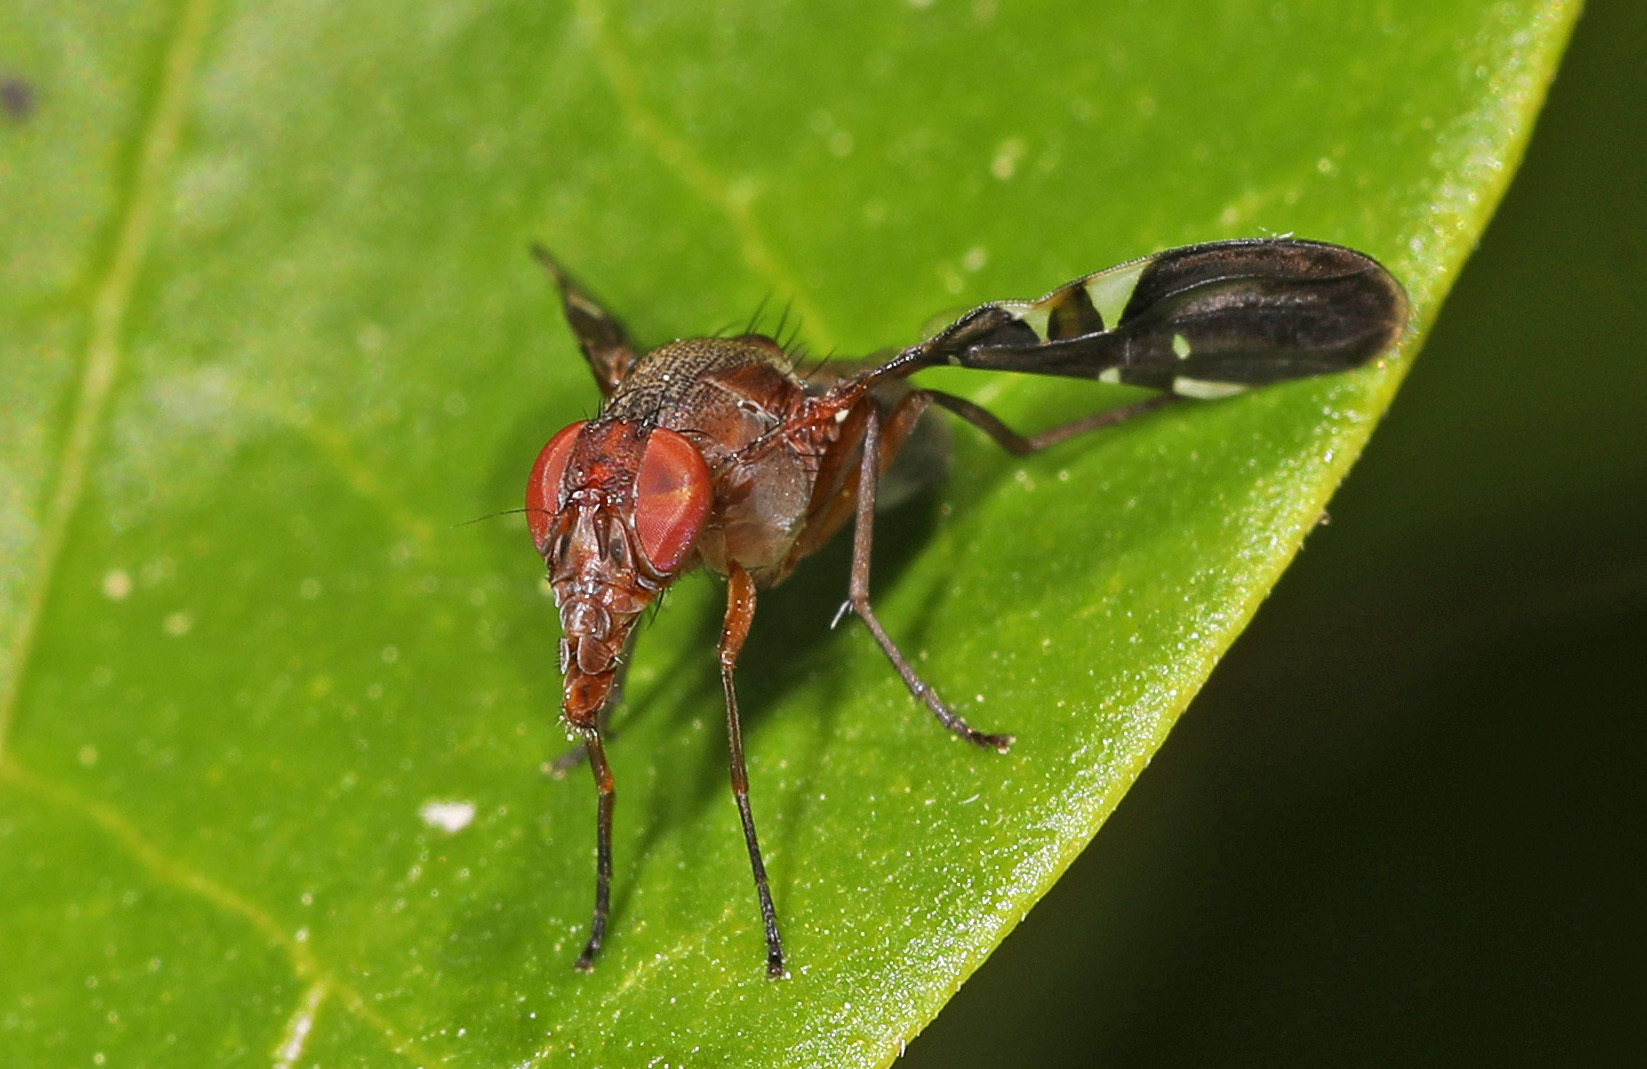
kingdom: Animalia
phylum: Arthropoda
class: Insecta
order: Diptera
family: Ulidiidae
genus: Delphinia
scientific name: Delphinia picta
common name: Common picture-winged fly
